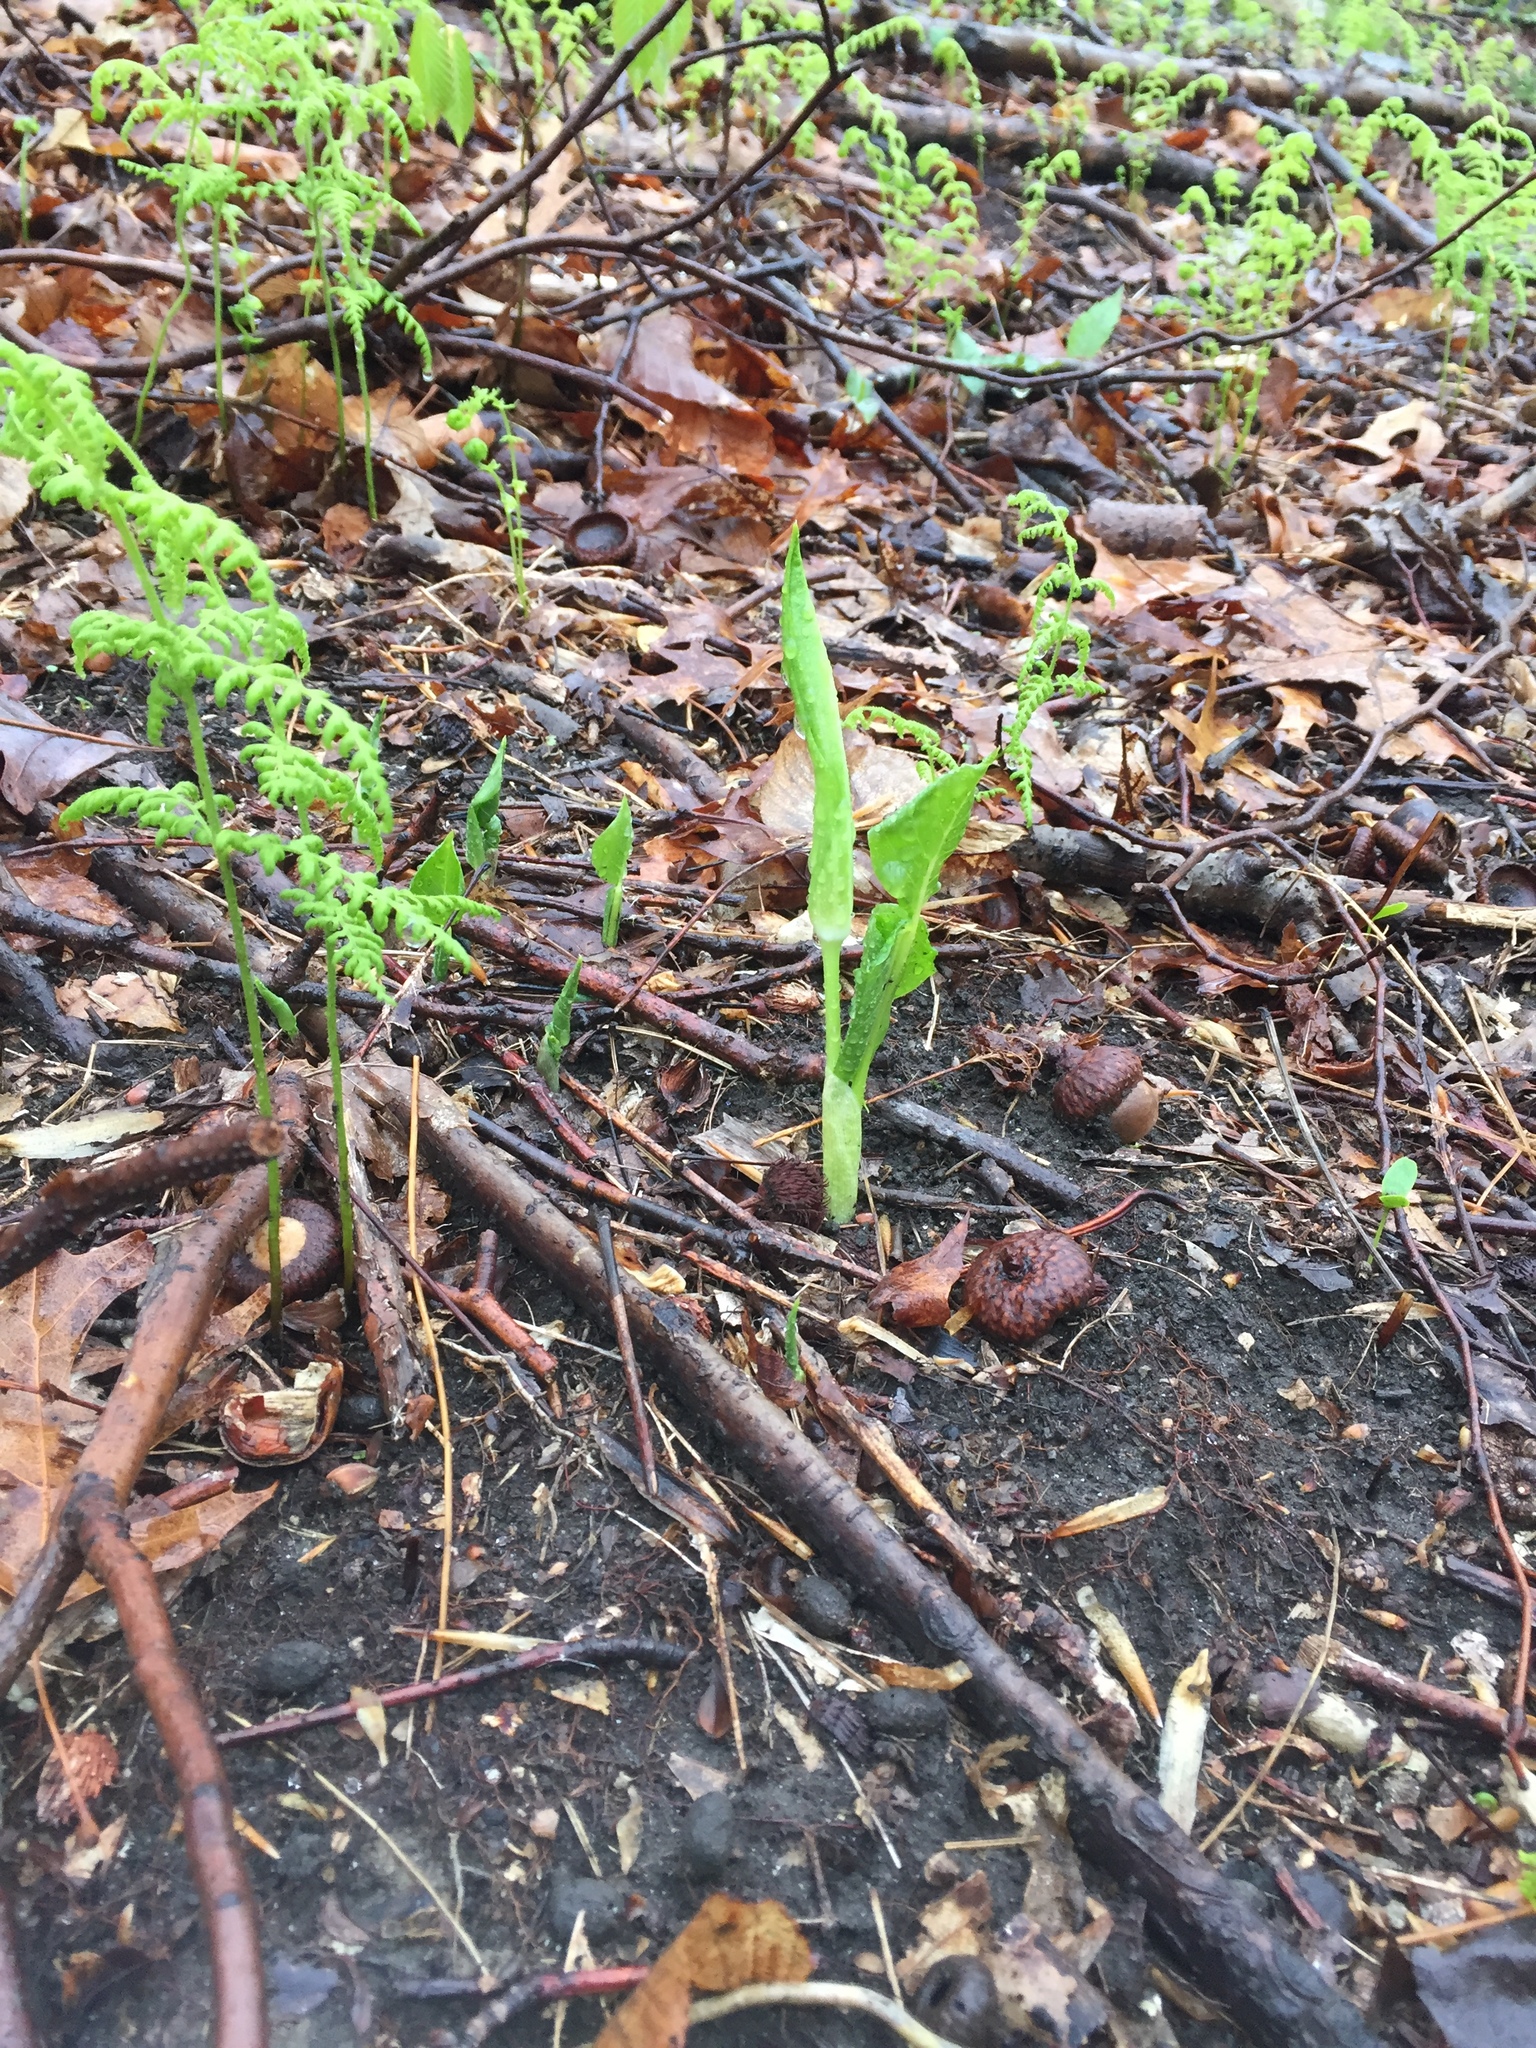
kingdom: Plantae
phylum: Tracheophyta
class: Liliopsida
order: Alismatales
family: Araceae
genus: Arisaema
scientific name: Arisaema triphyllum
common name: Jack-in-the-pulpit
